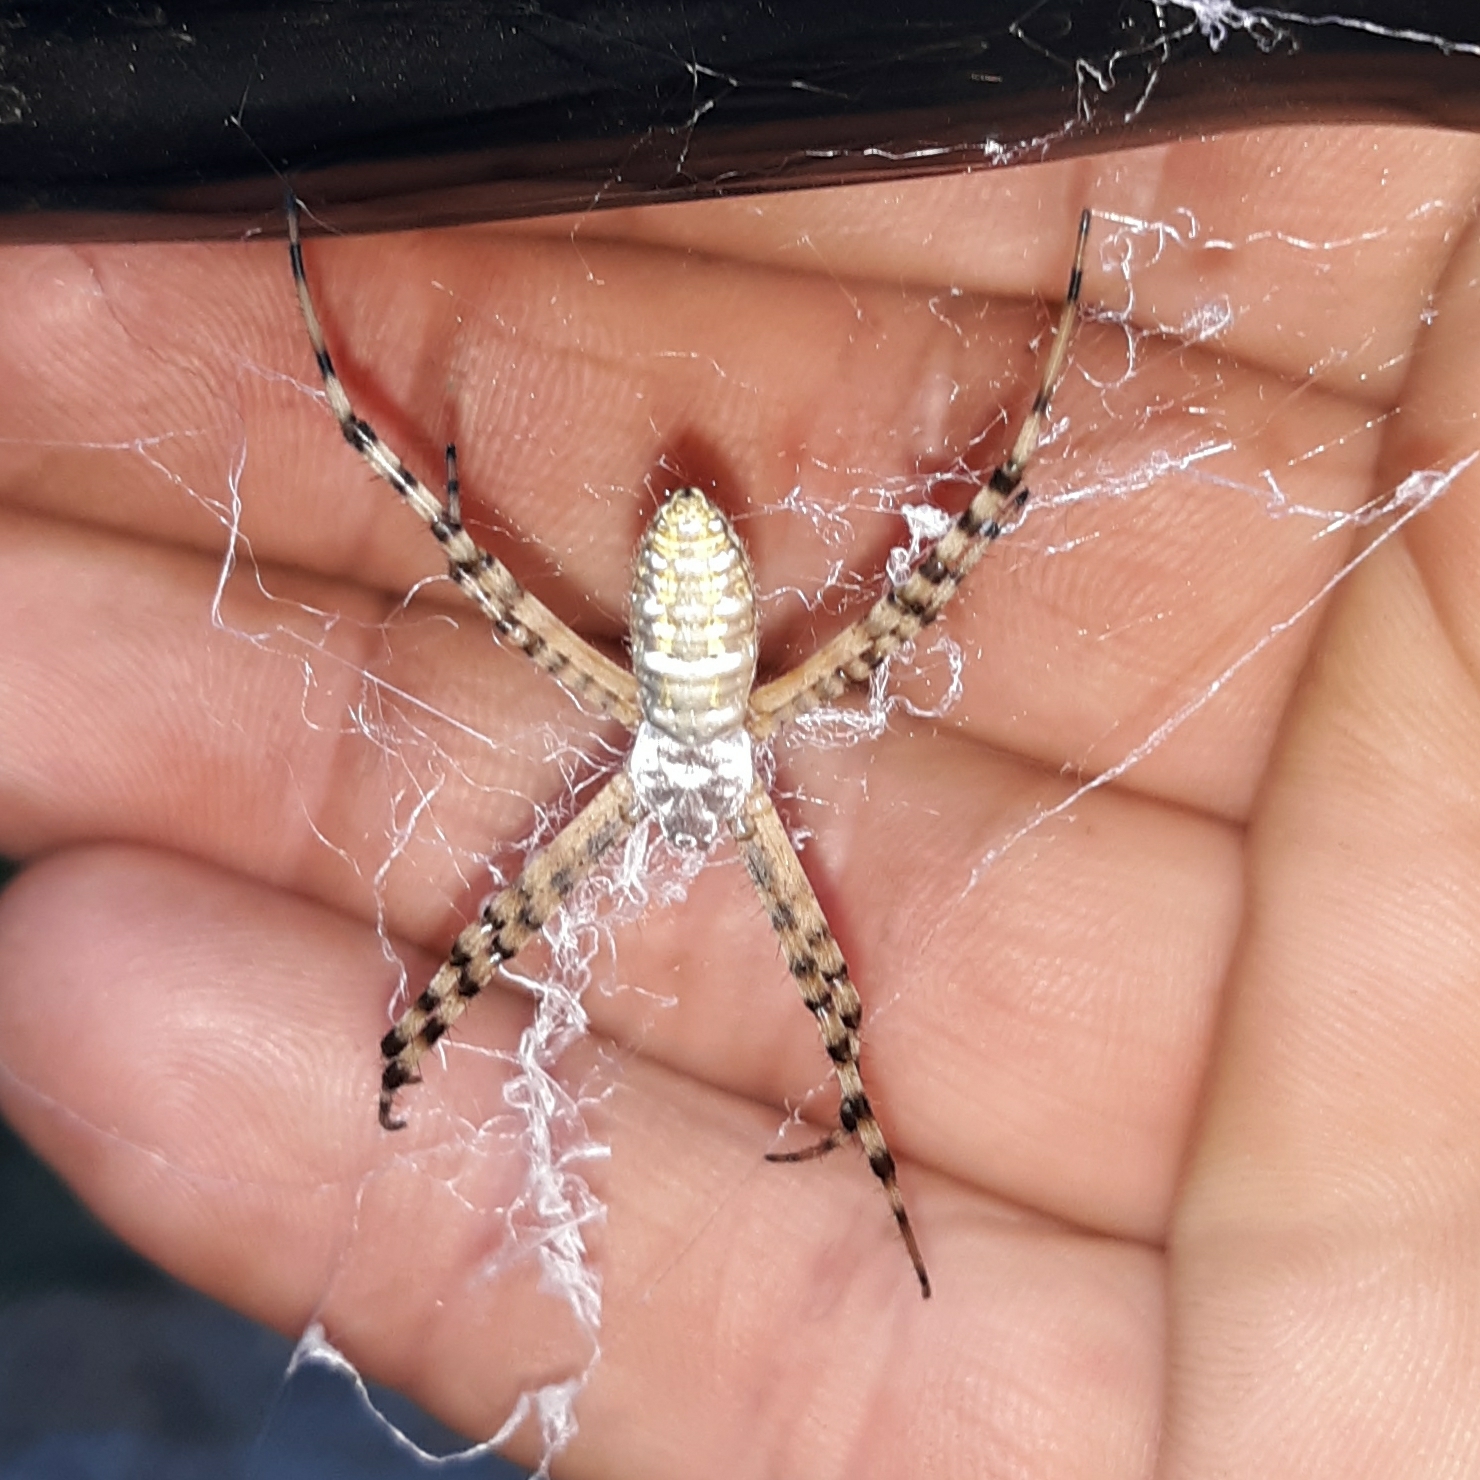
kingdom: Animalia
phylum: Arthropoda
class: Arachnida
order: Araneae
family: Araneidae
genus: Argiope
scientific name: Argiope trifasciata
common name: Banded garden spider
